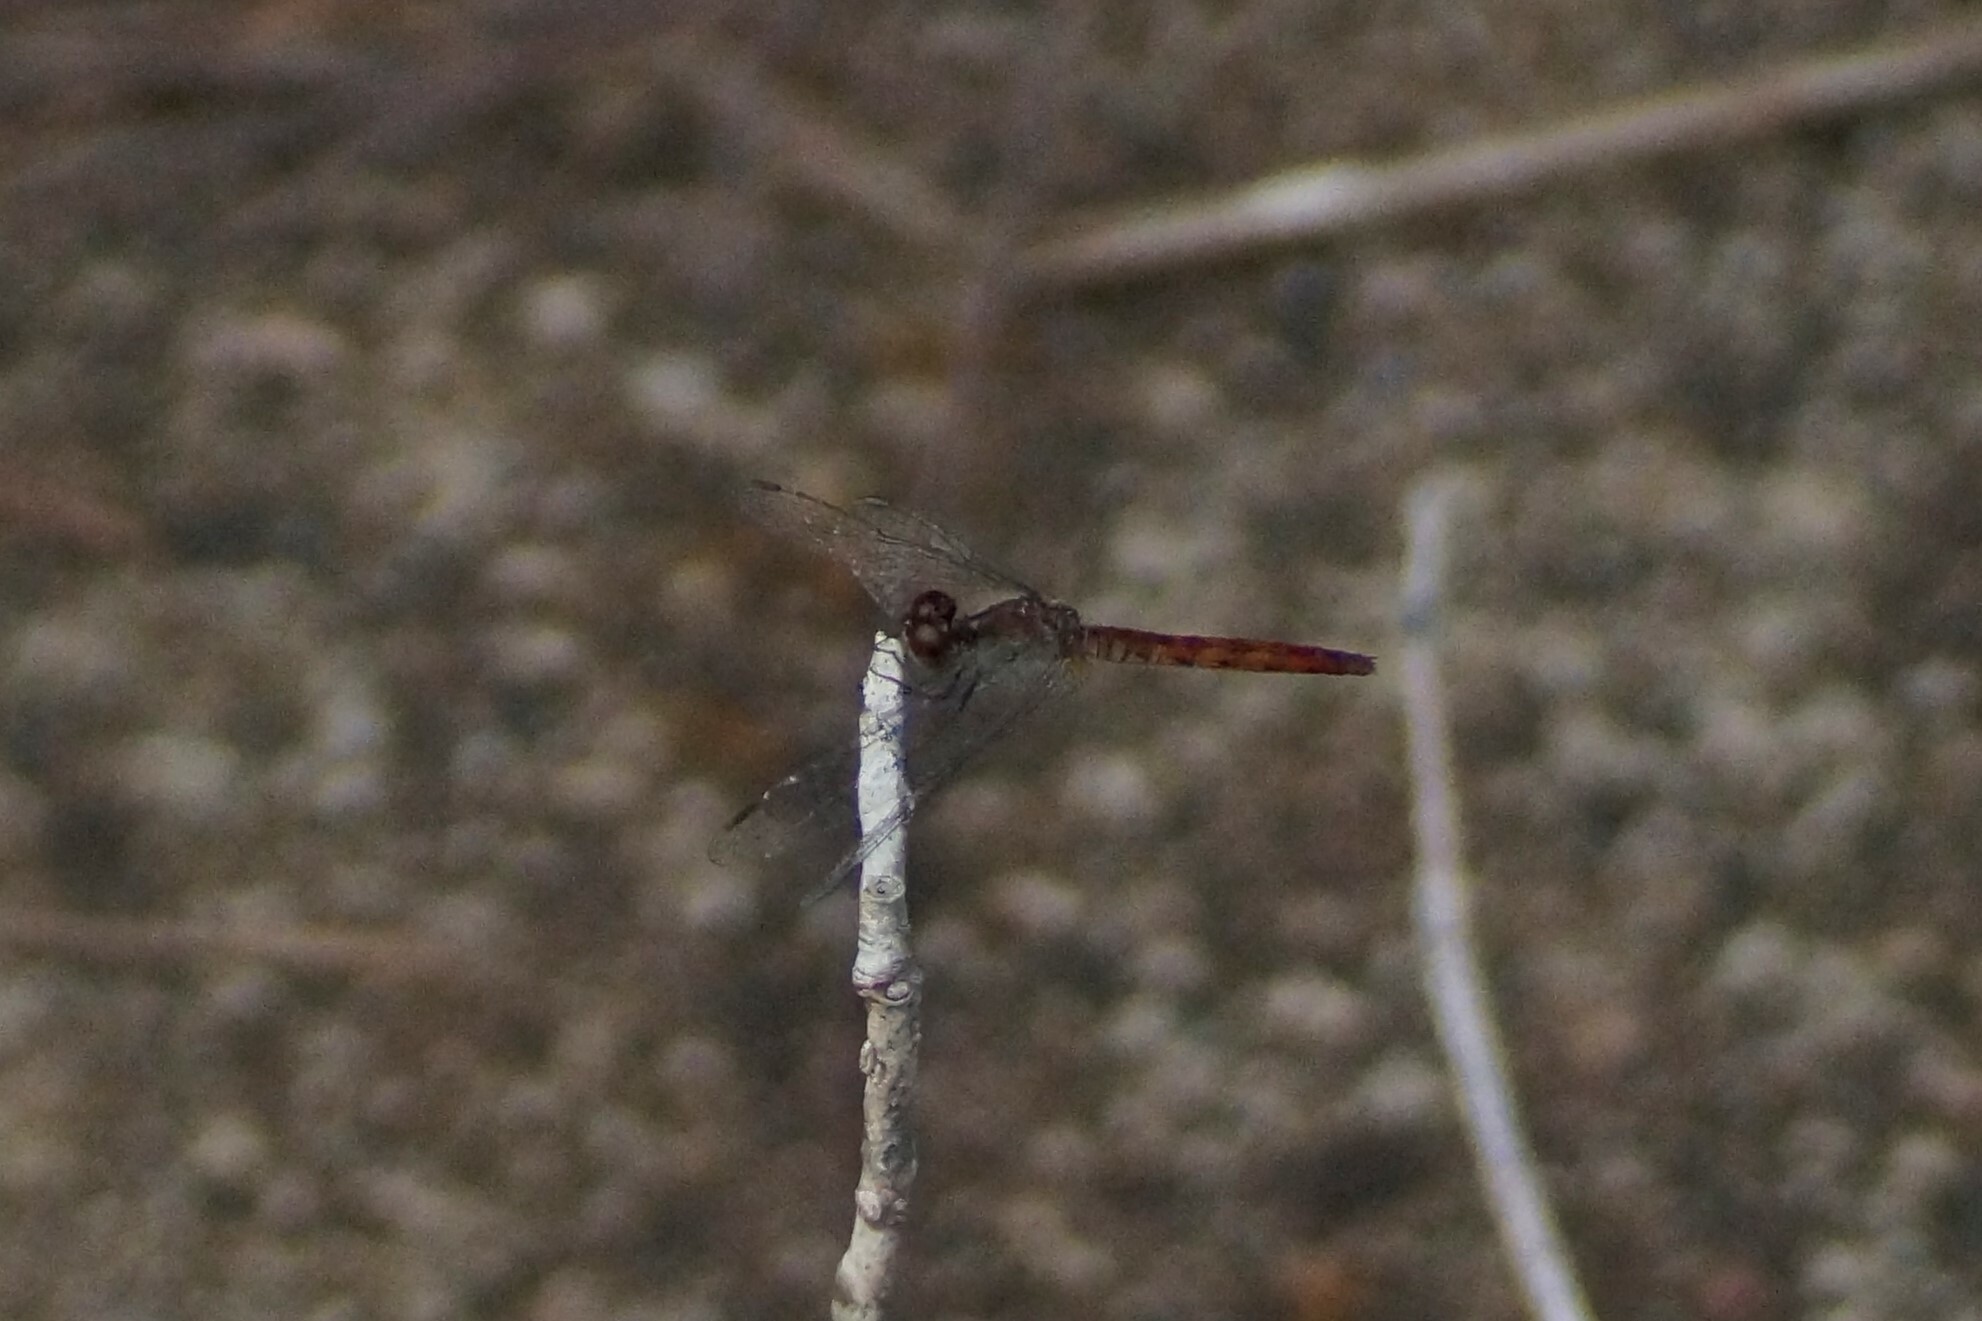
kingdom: Animalia
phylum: Arthropoda
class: Insecta
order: Odonata
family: Libellulidae
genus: Nannodiplax
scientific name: Nannodiplax rubra
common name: Pygmy percher
